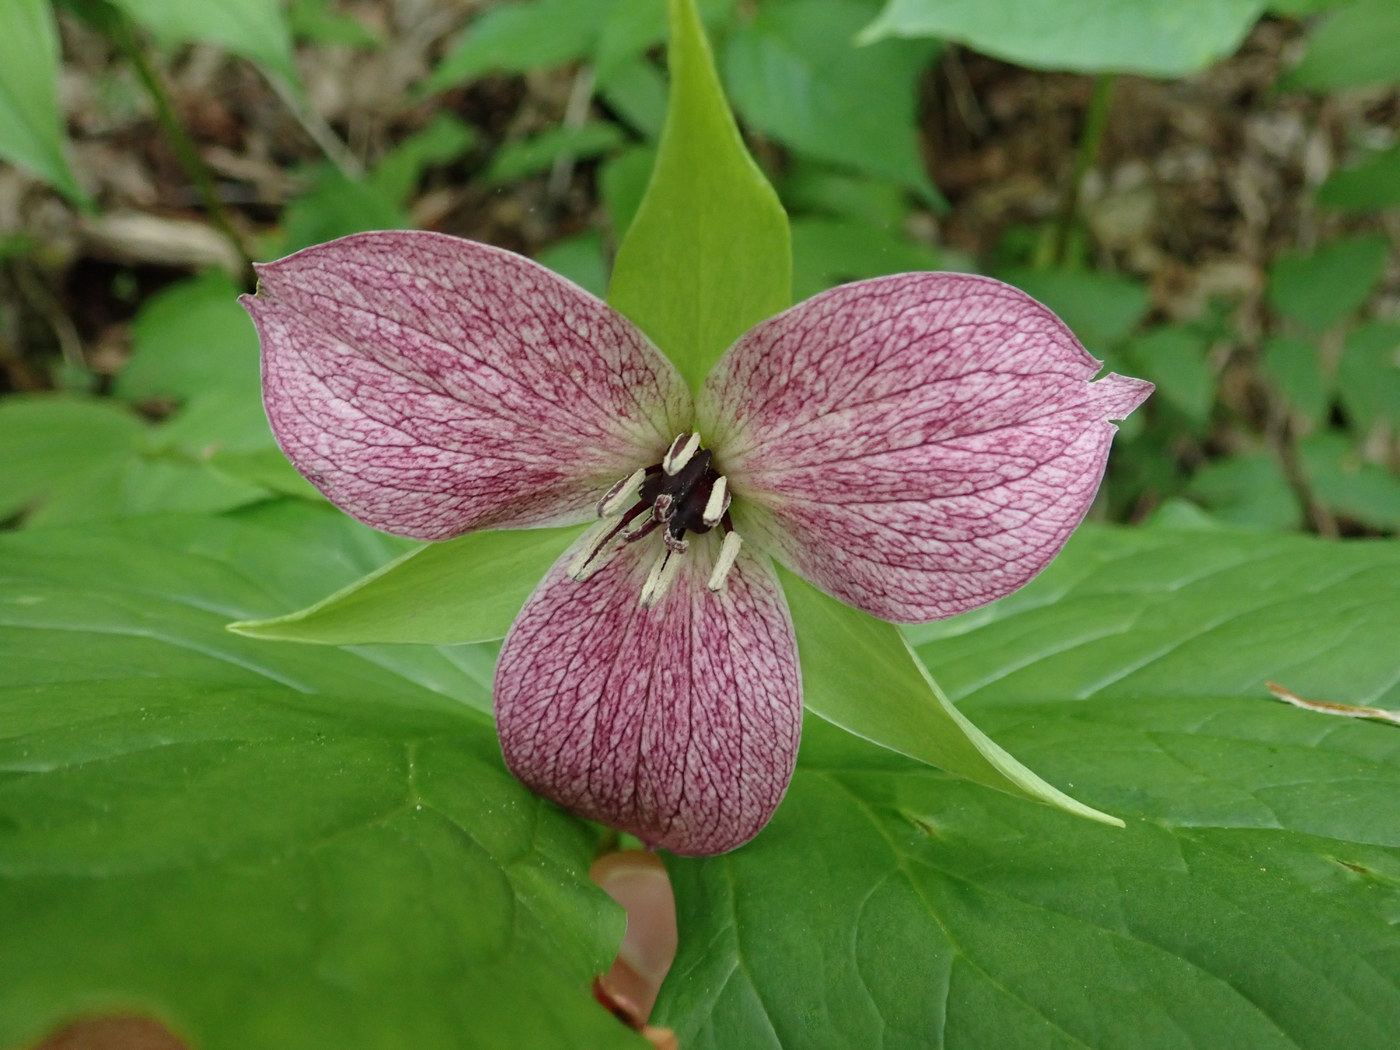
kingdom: Plantae
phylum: Tracheophyta
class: Liliopsida
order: Liliales
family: Melanthiaceae
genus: Trillium
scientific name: Trillium erectum
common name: Purple trillium
